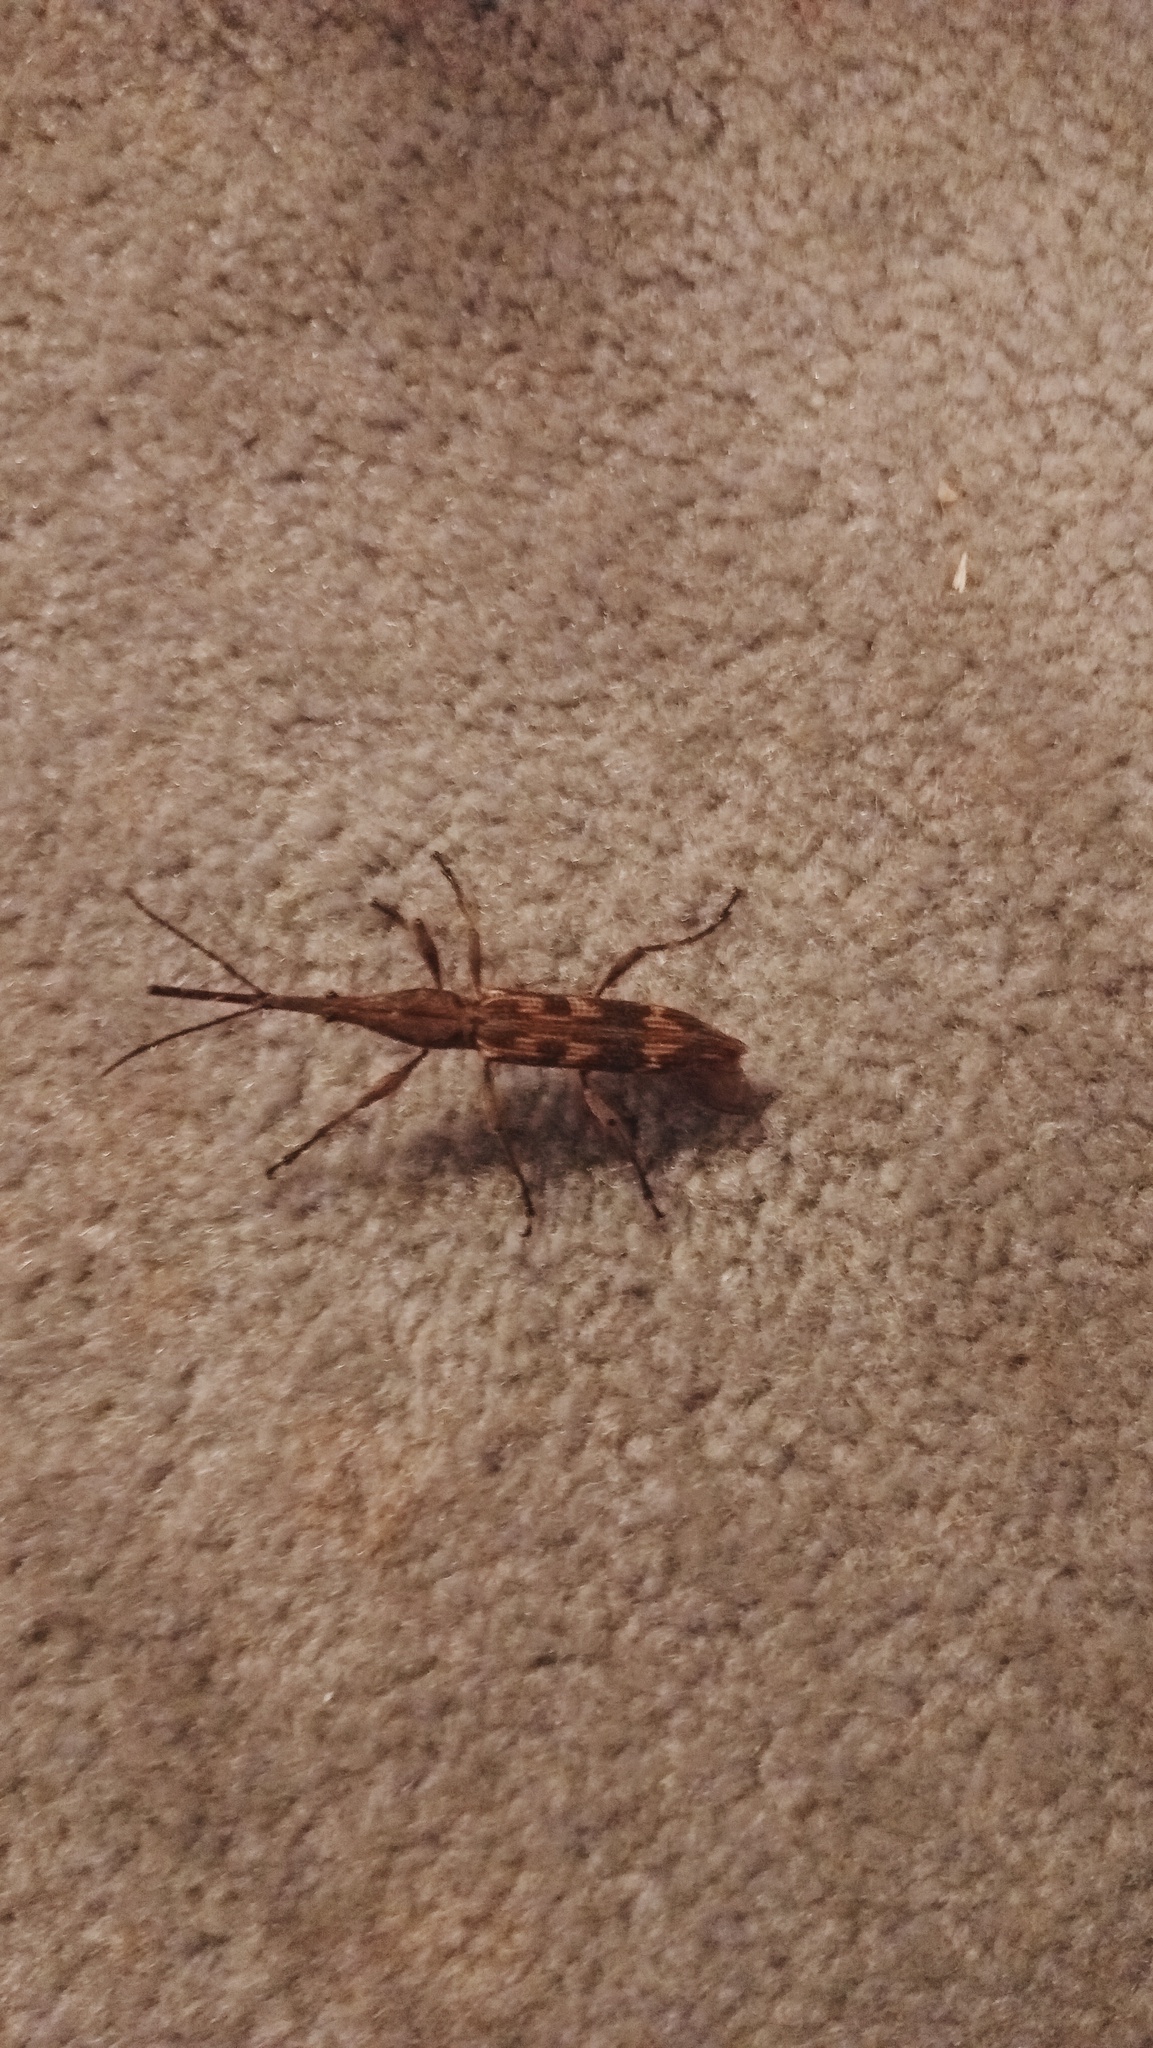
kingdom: Animalia
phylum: Arthropoda
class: Insecta
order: Coleoptera
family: Brentidae
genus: Lasiorhynchus
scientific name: Lasiorhynchus barbicornis
